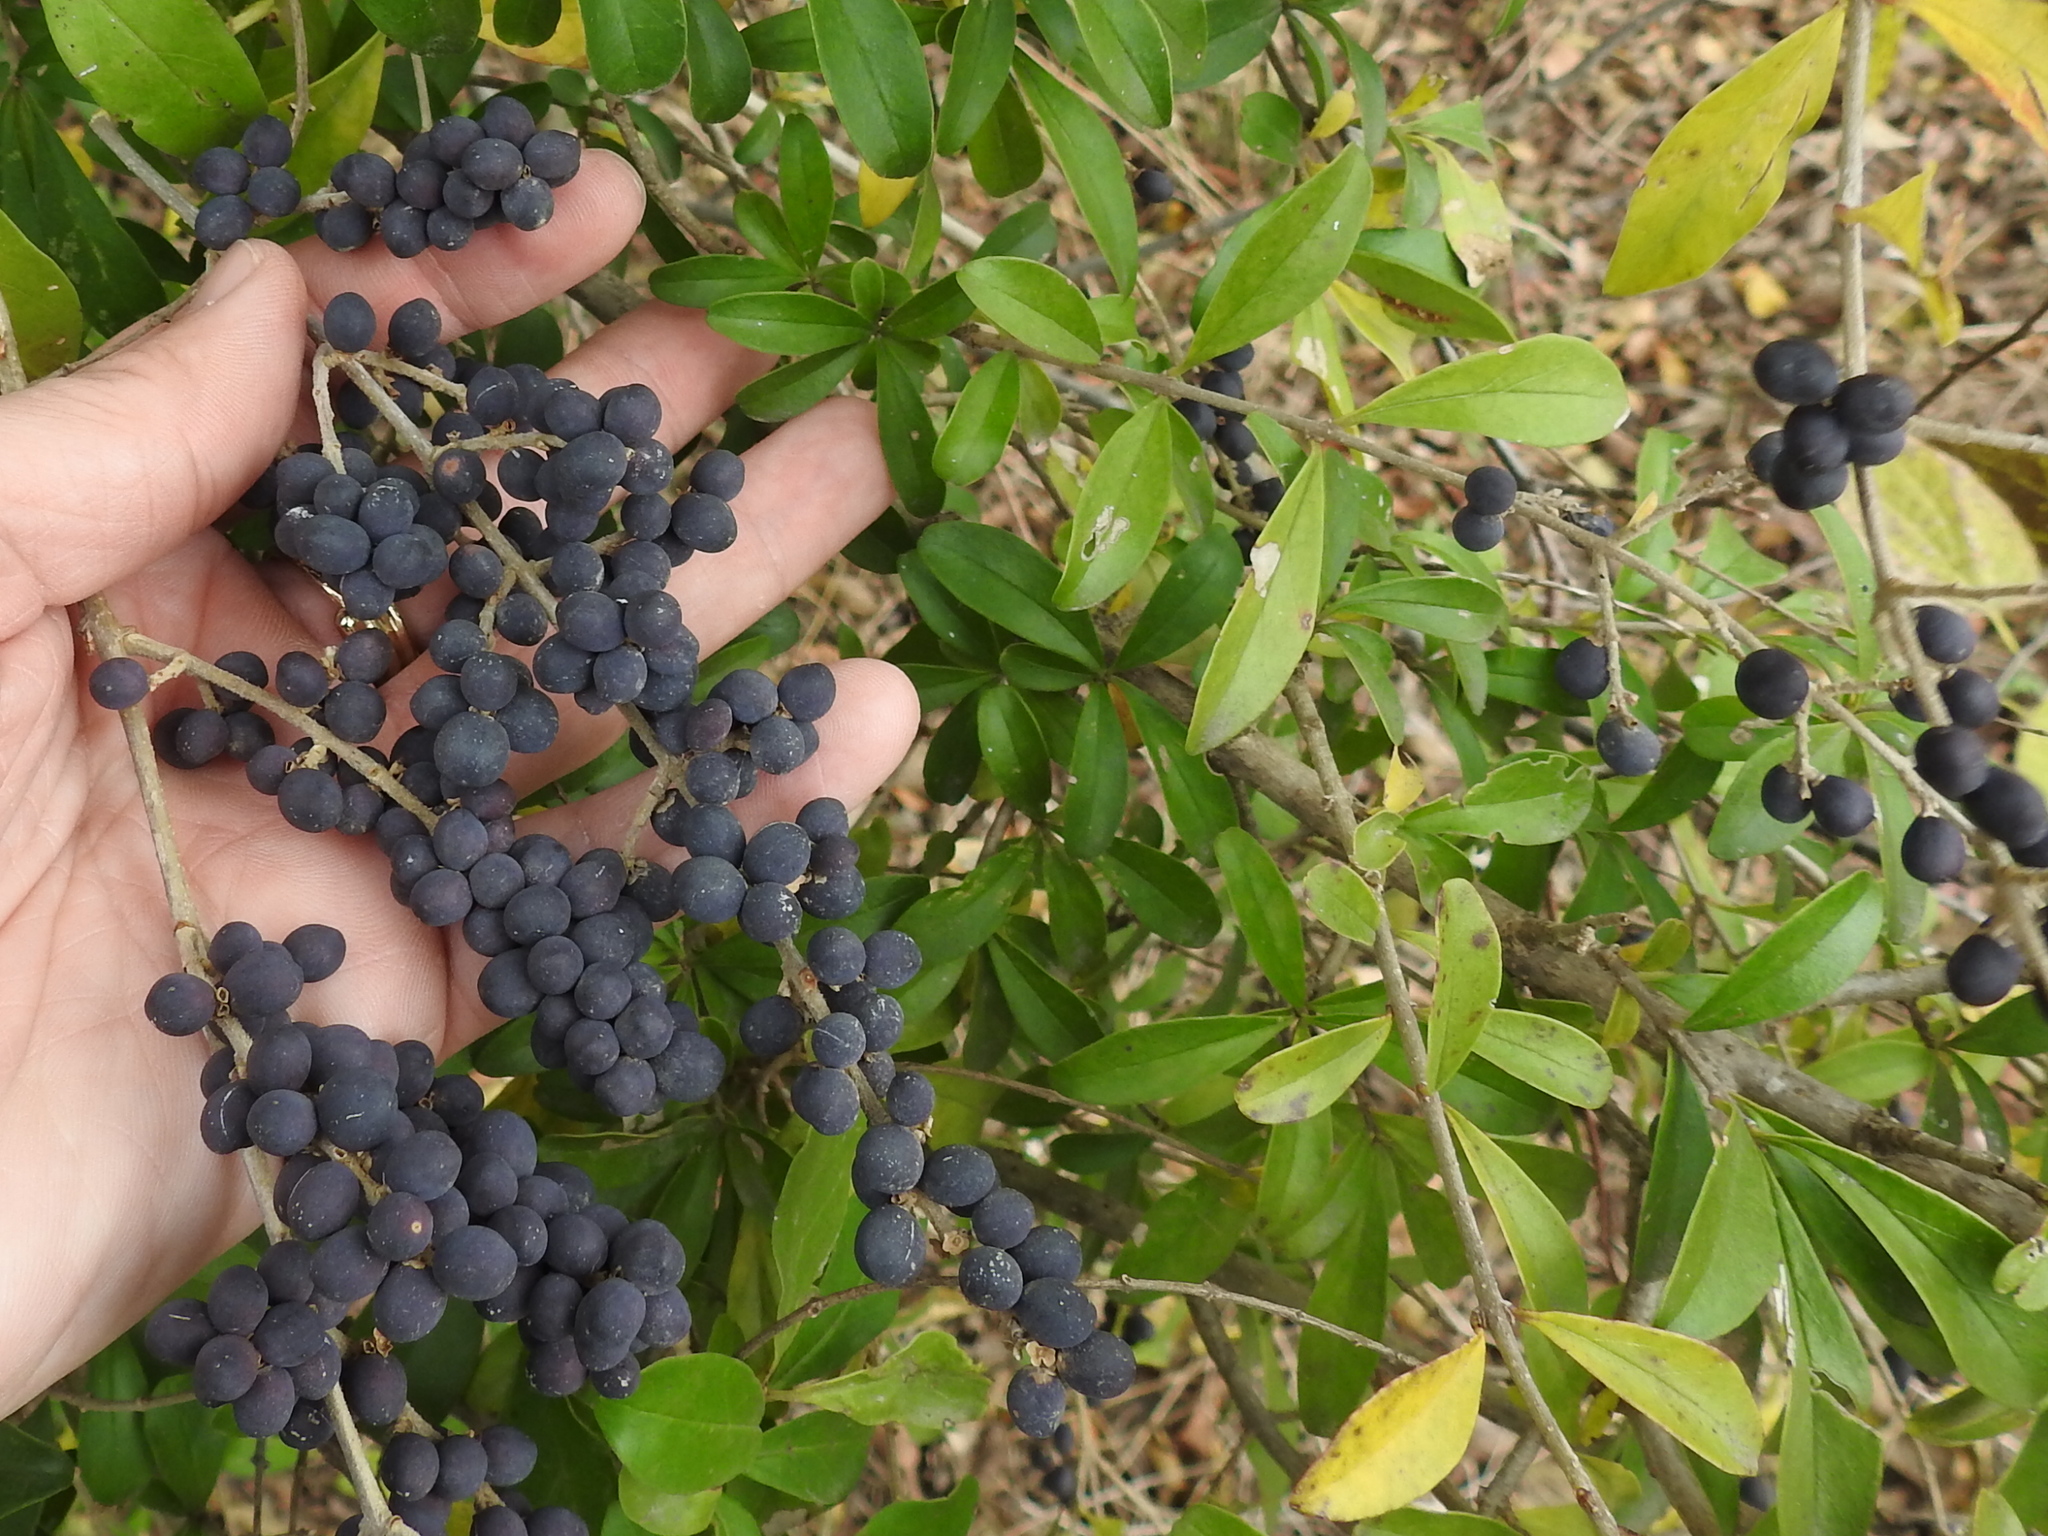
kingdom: Plantae
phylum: Tracheophyta
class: Magnoliopsida
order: Lamiales
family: Oleaceae
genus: Ligustrum
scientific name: Ligustrum quihoui
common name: Waxyleaf privet
